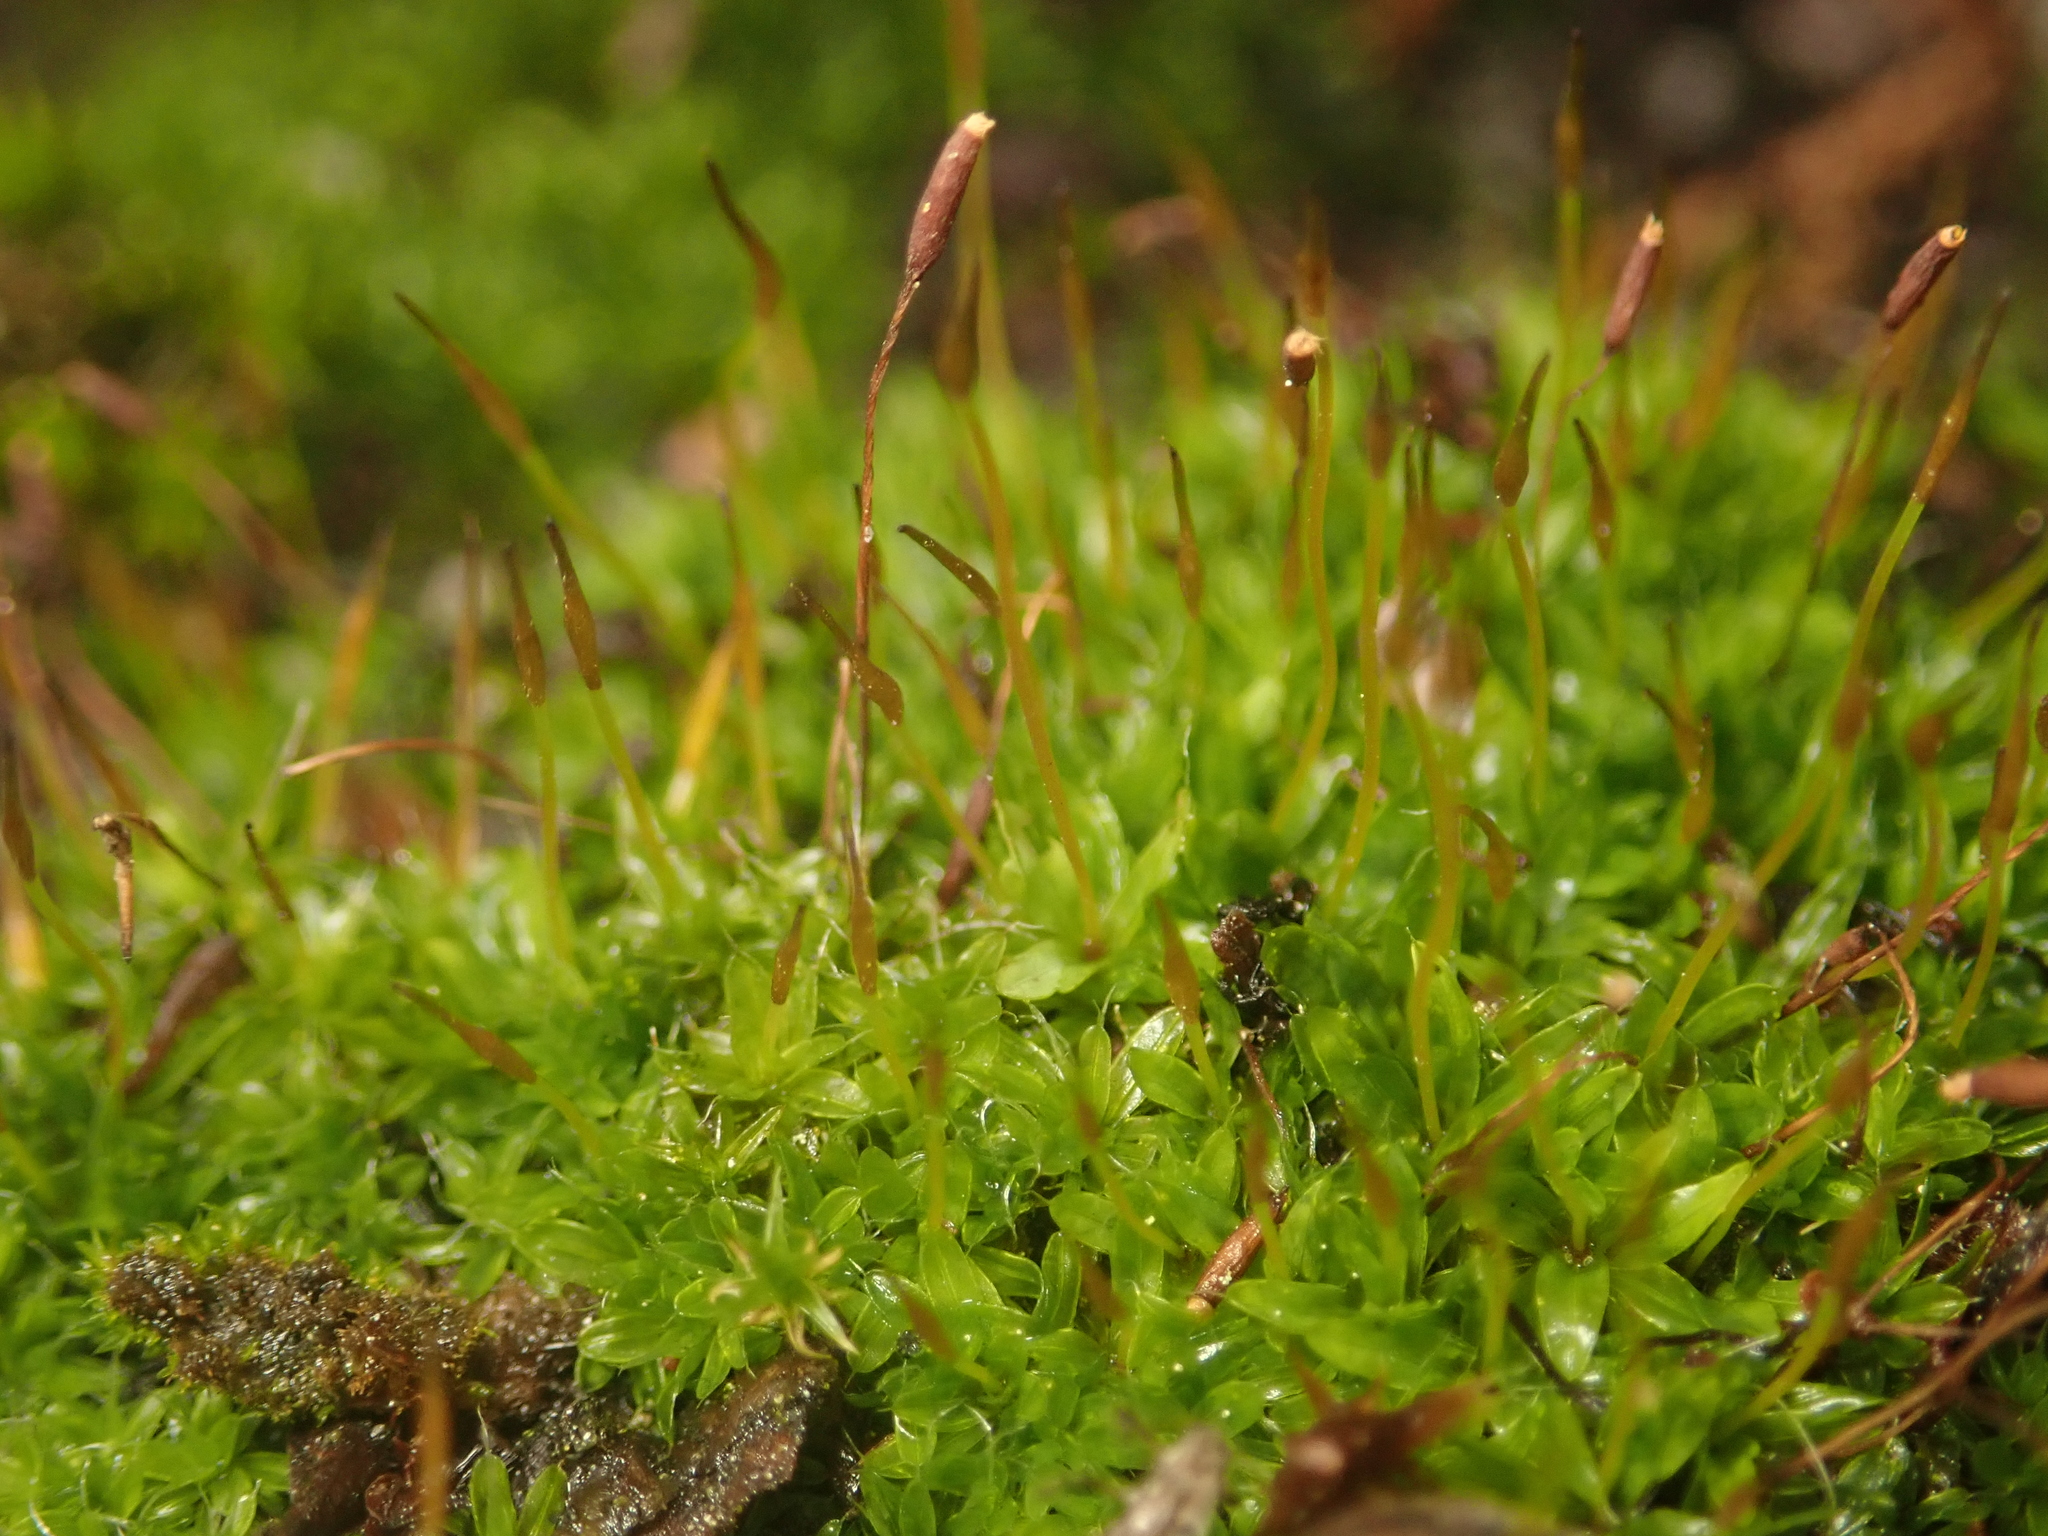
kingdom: Plantae
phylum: Bryophyta
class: Bryopsida
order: Pottiales
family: Pottiaceae
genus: Tortula
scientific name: Tortula muralis
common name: Wall screw-moss
